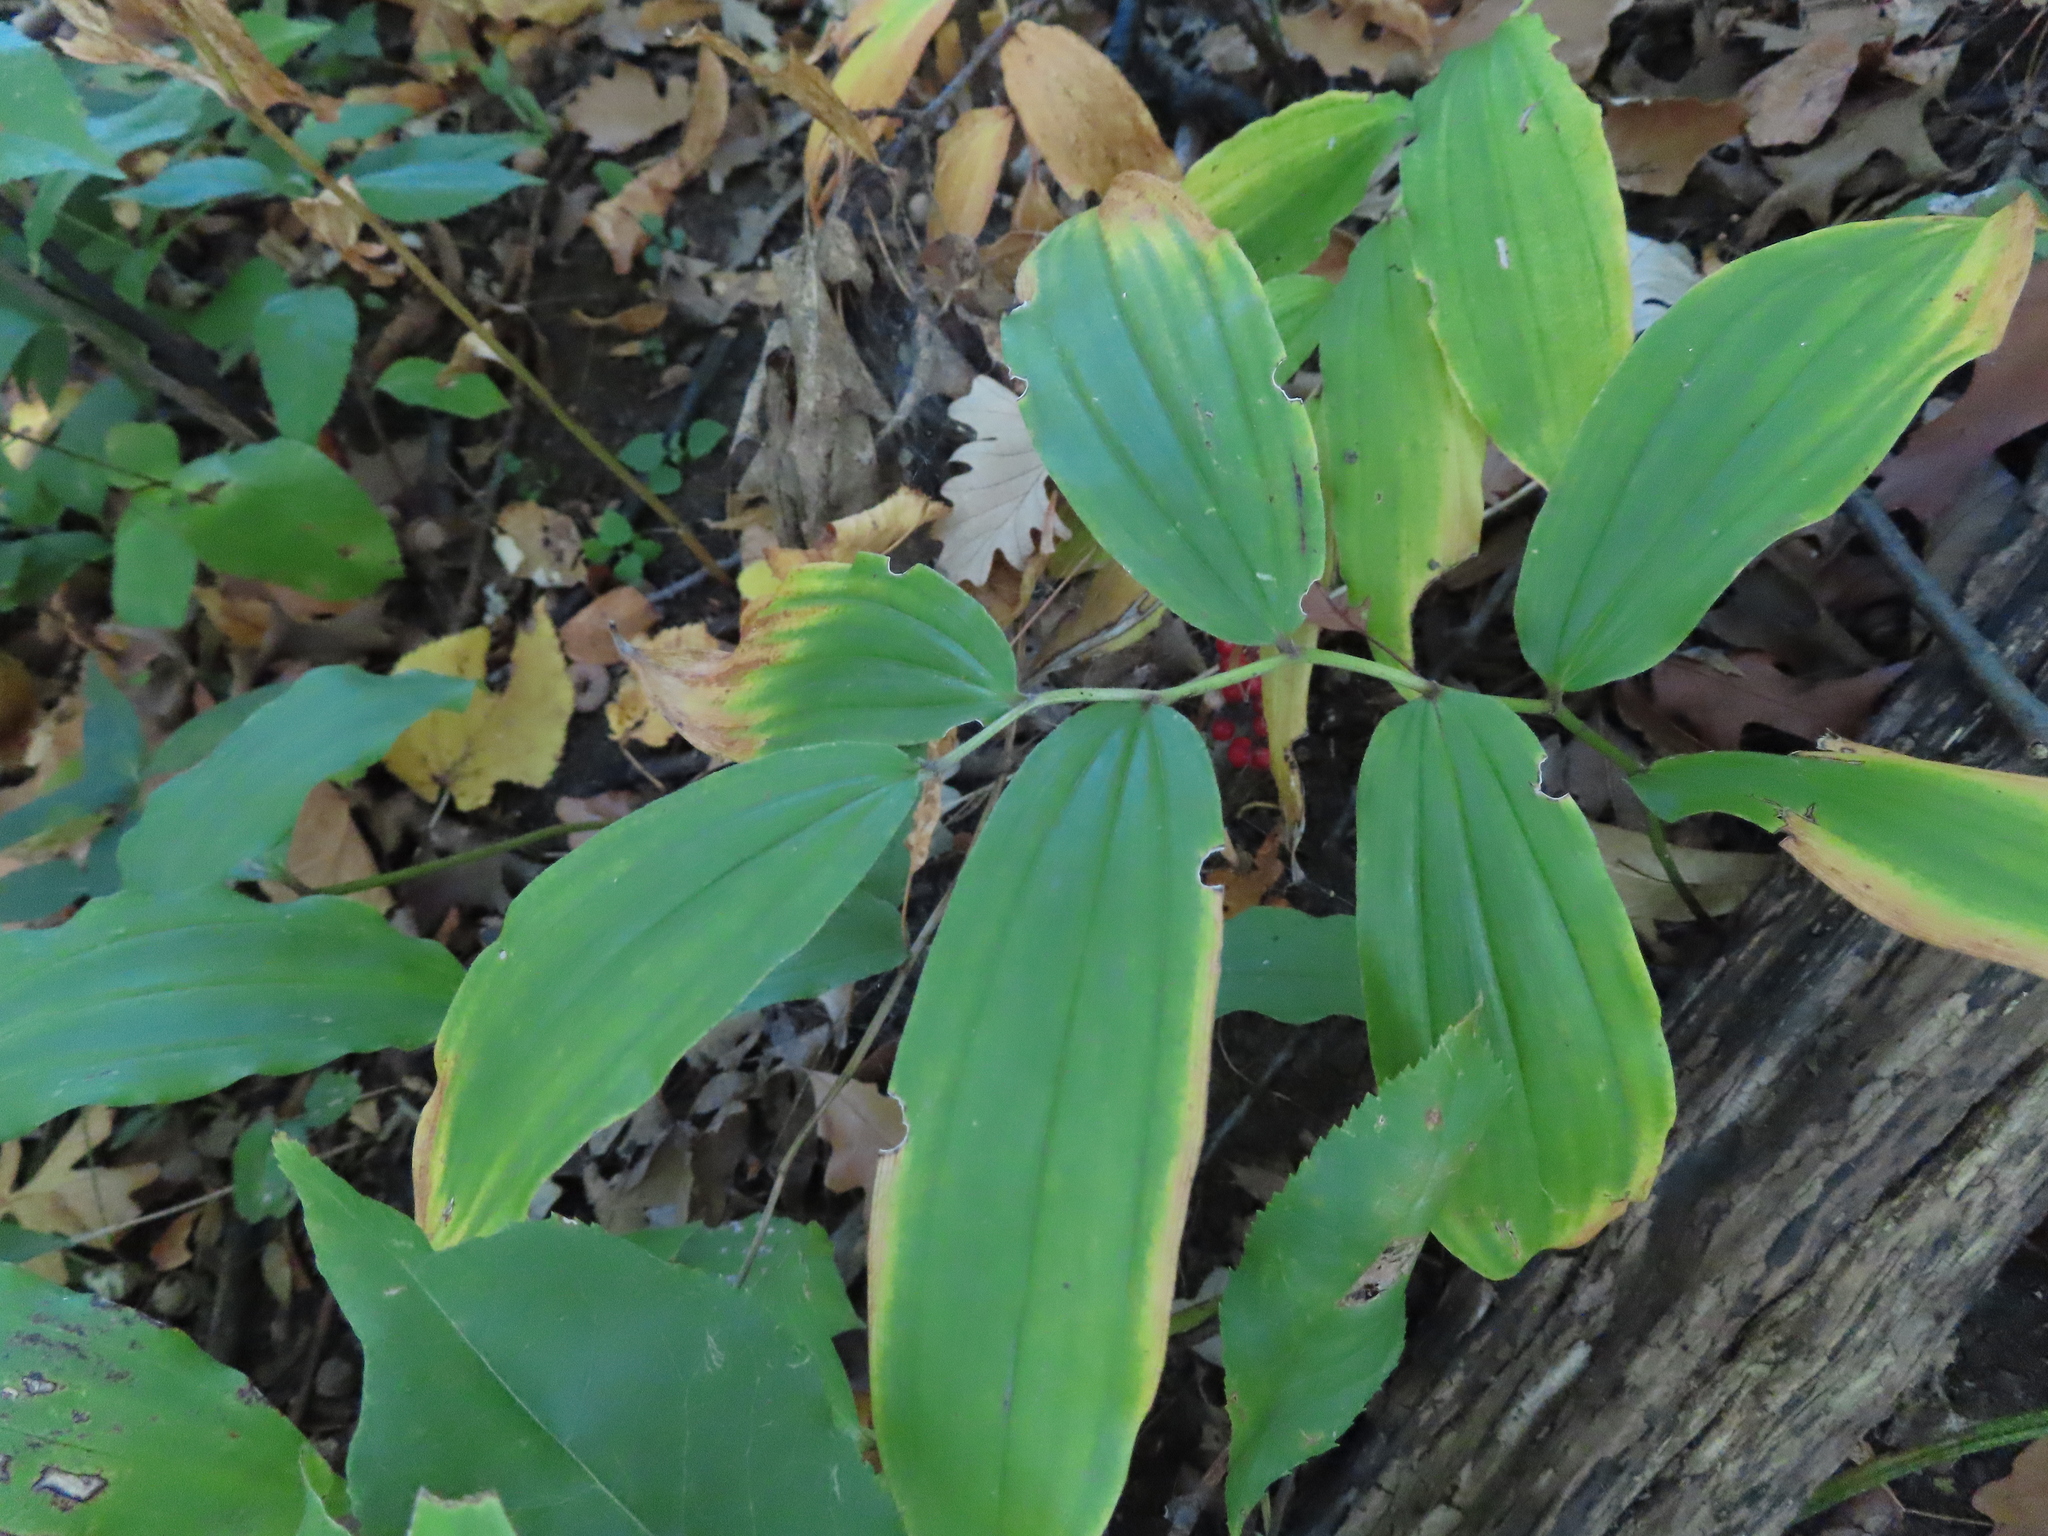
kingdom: Plantae
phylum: Tracheophyta
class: Liliopsida
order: Asparagales
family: Asparagaceae
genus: Maianthemum
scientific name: Maianthemum racemosum
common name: False spikenard
